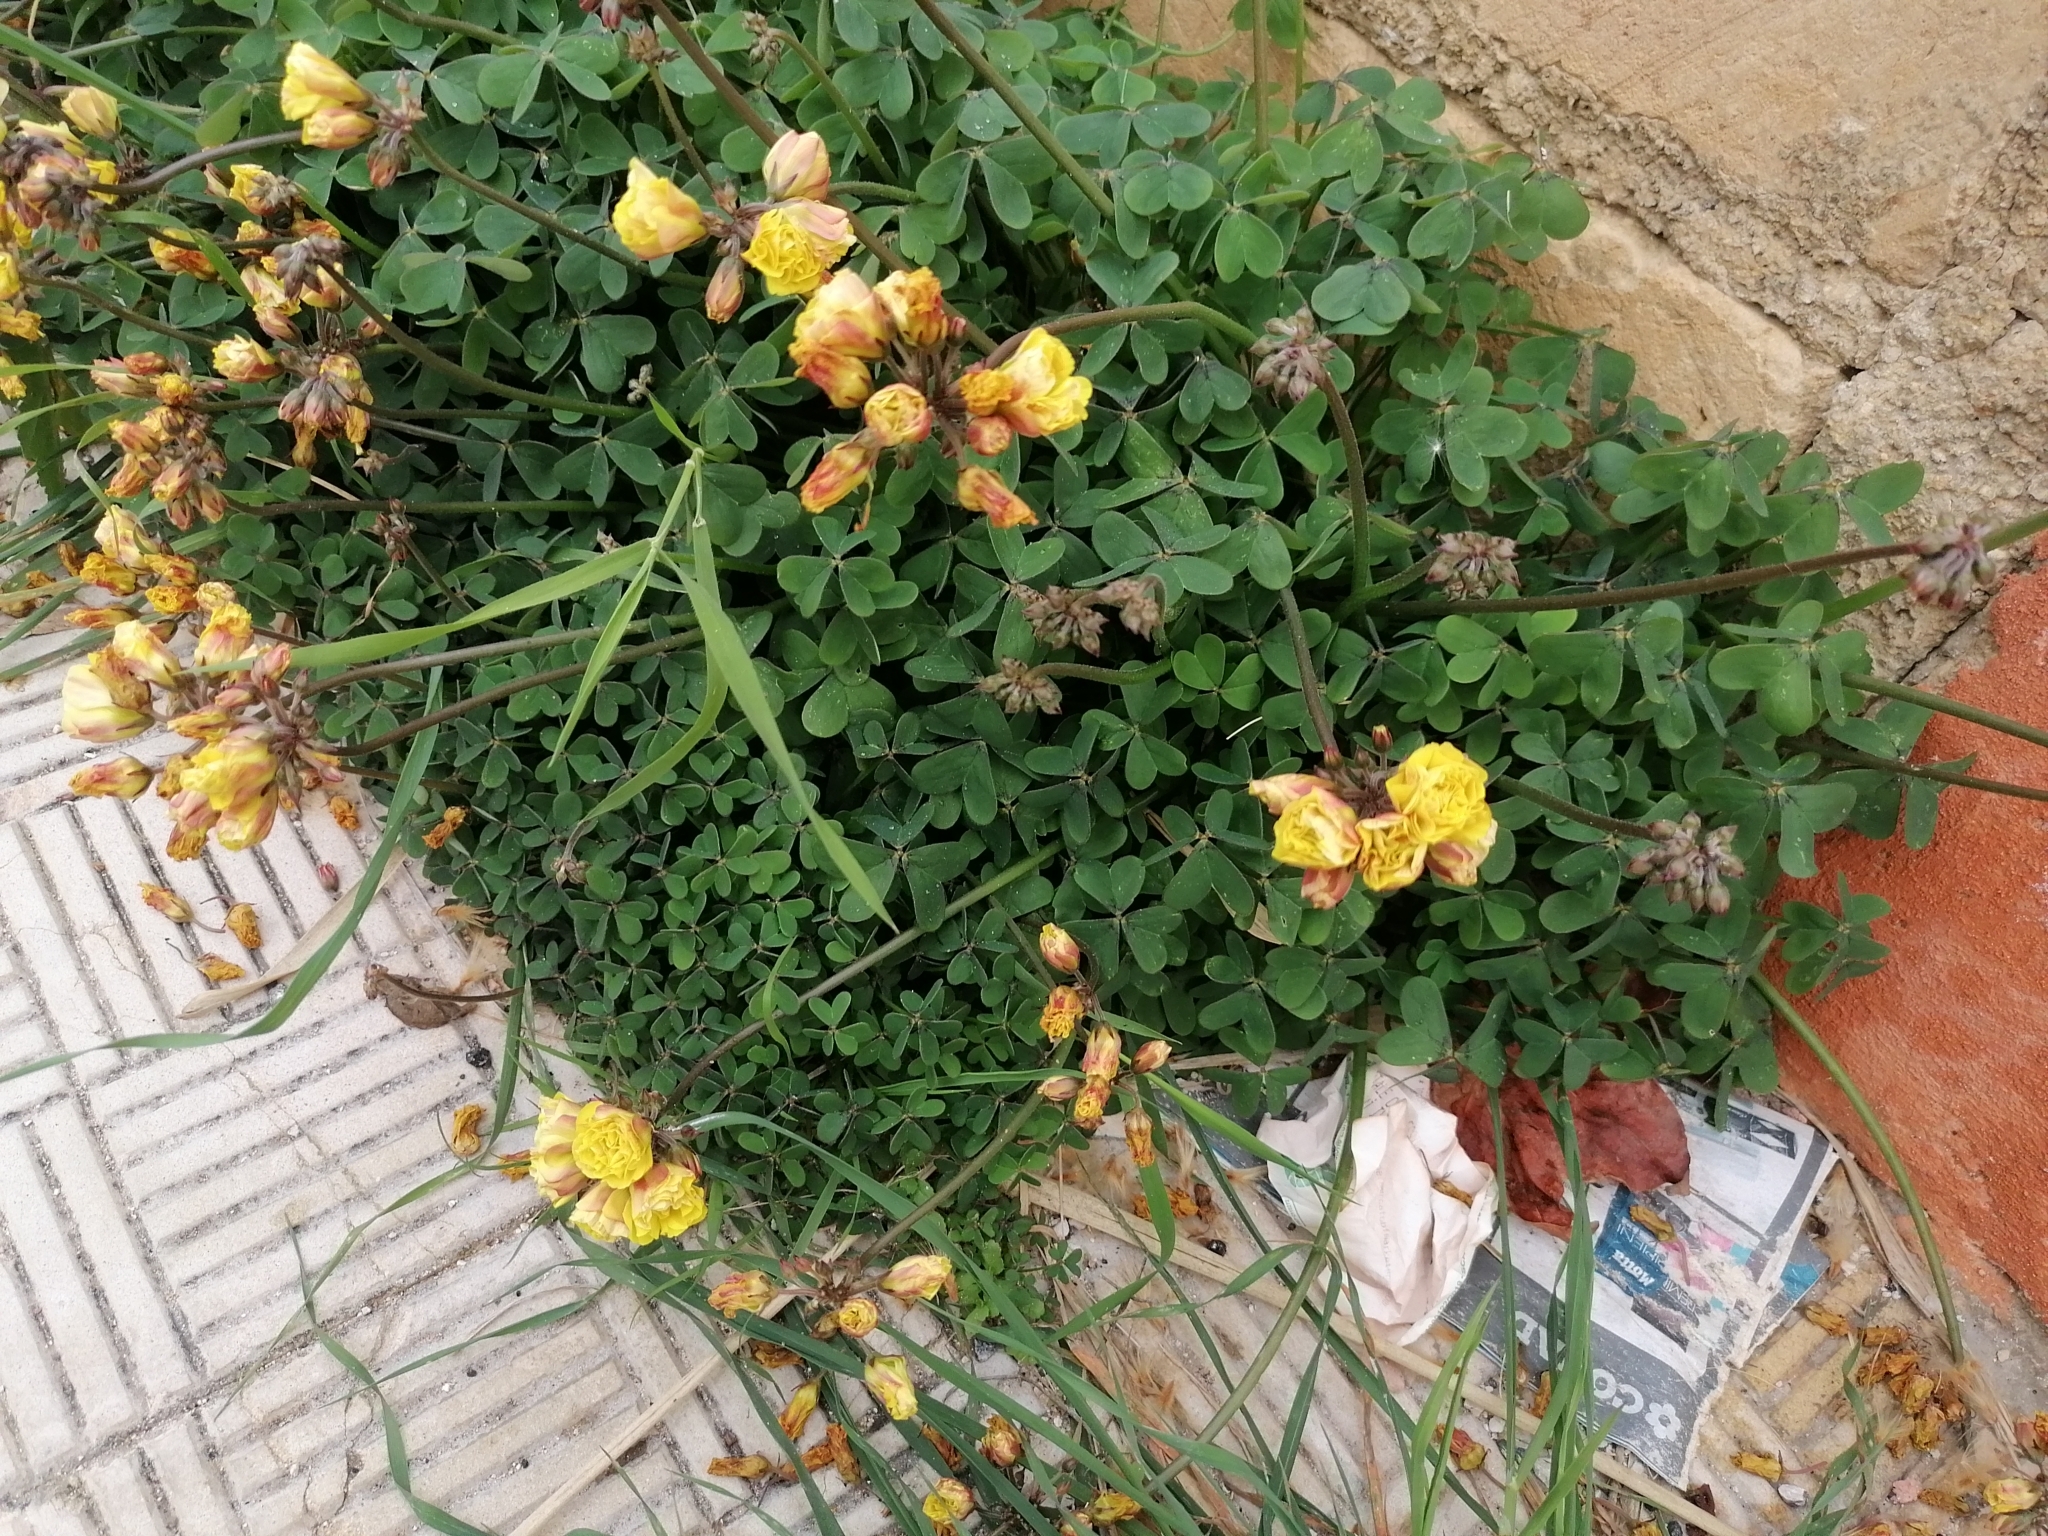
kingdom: Plantae
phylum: Tracheophyta
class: Magnoliopsida
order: Oxalidales
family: Oxalidaceae
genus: Oxalis
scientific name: Oxalis pes-caprae
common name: Bermuda-buttercup
